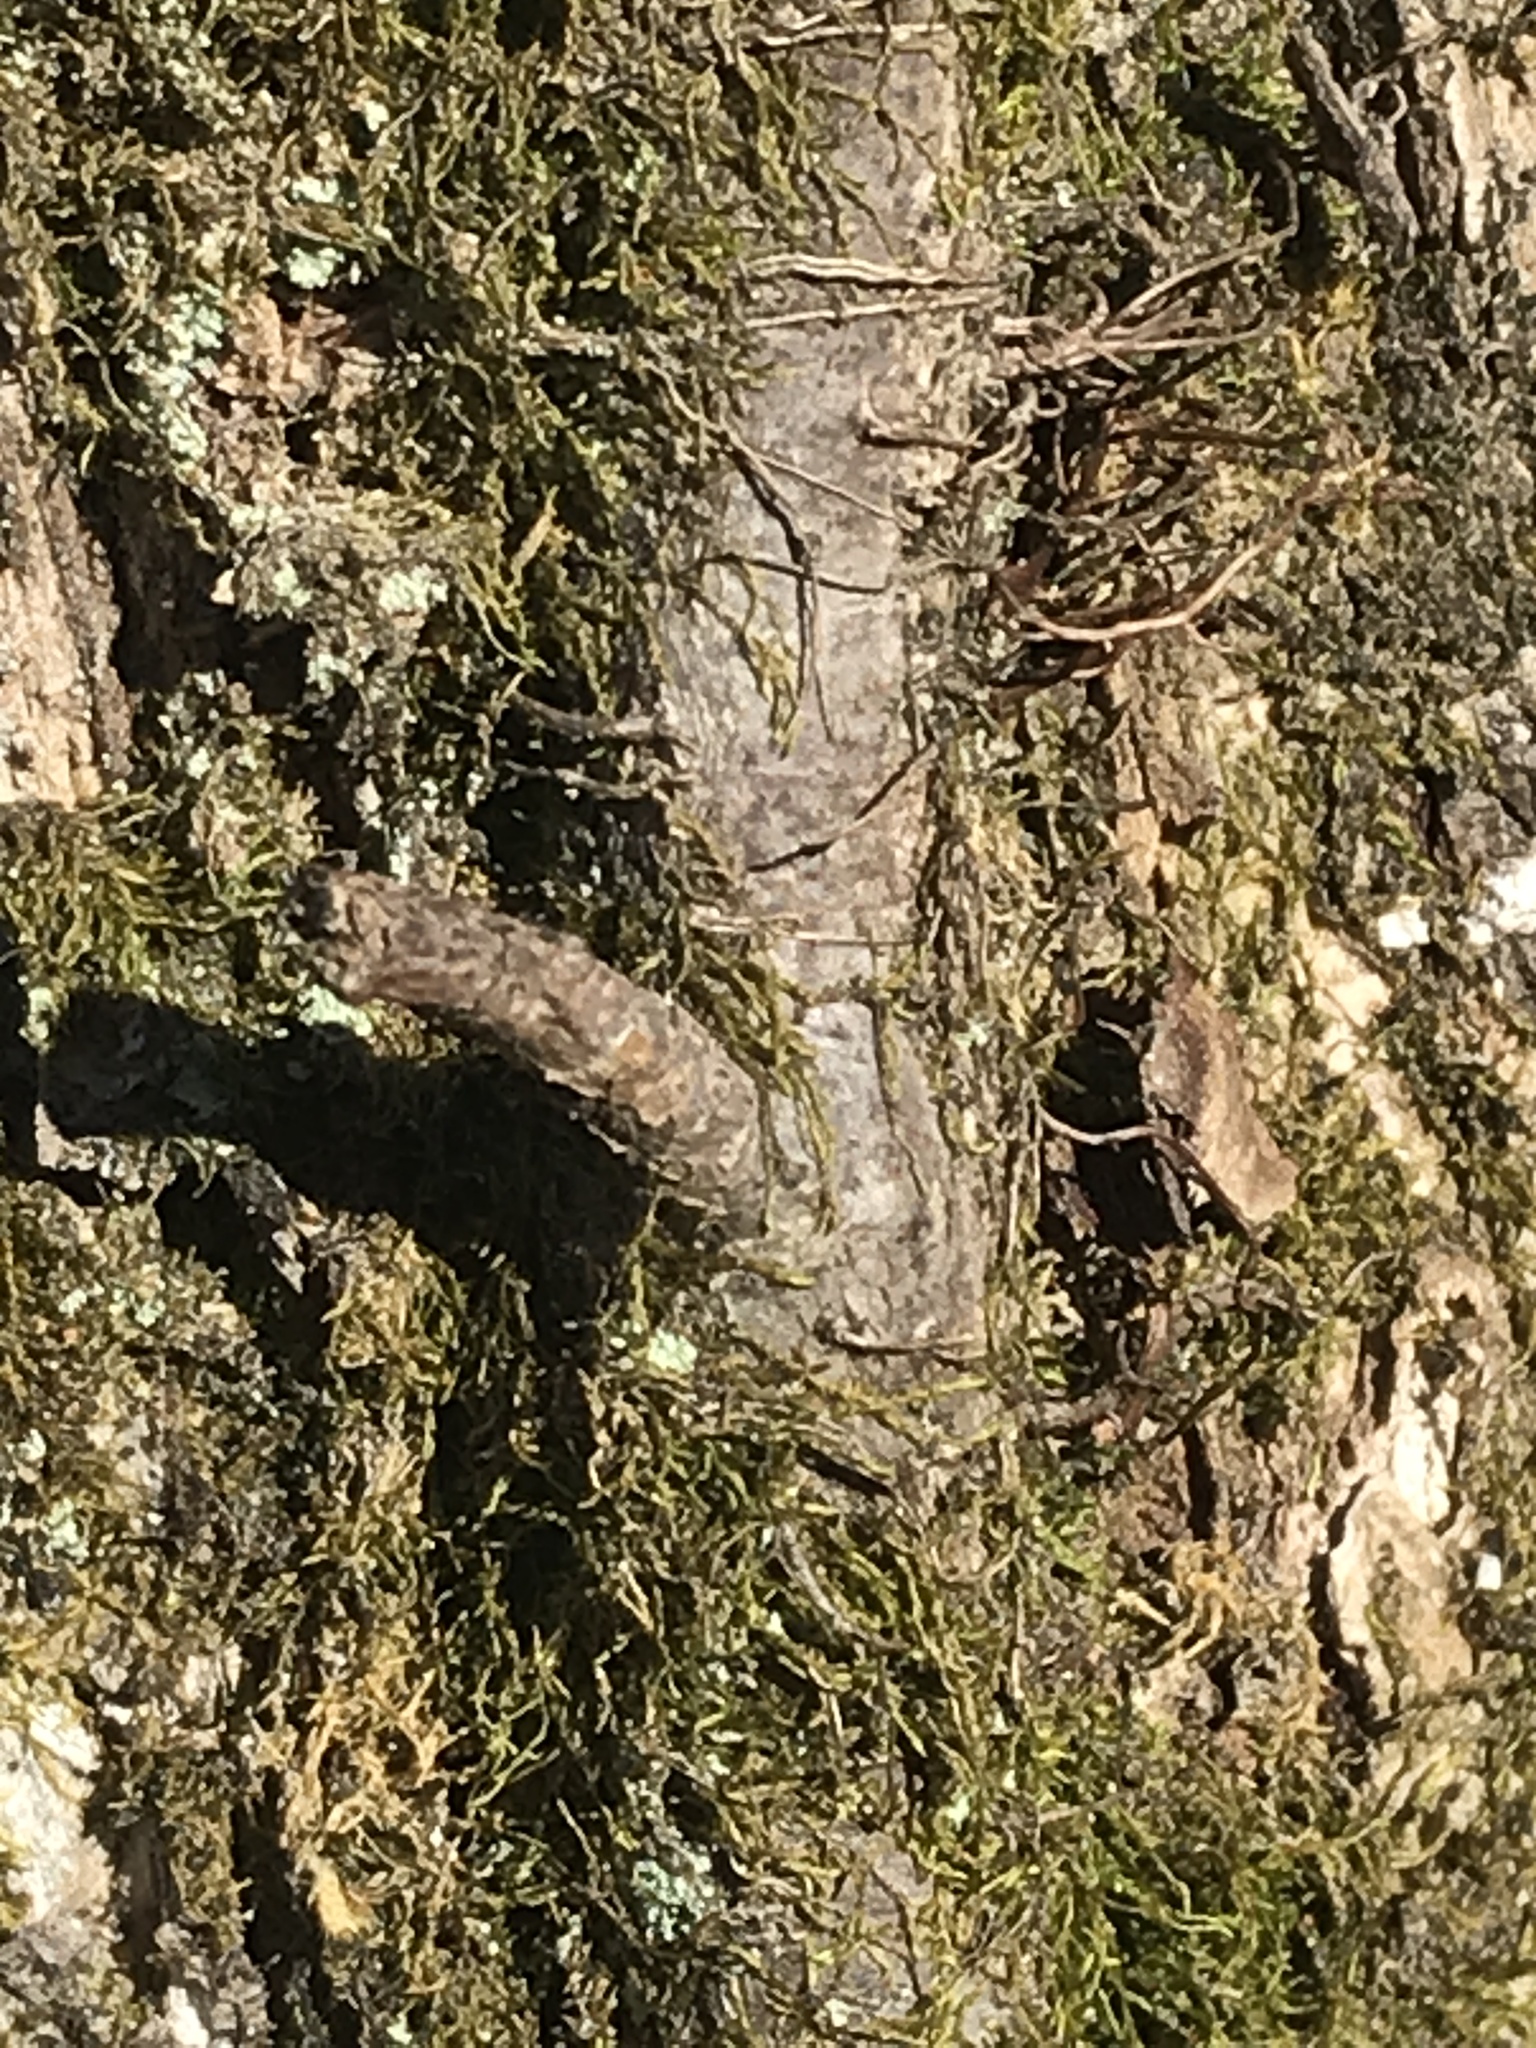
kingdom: Plantae
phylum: Tracheophyta
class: Polypodiopsida
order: Polypodiales
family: Polypodiaceae
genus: Pleopeltis
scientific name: Pleopeltis michauxiana
